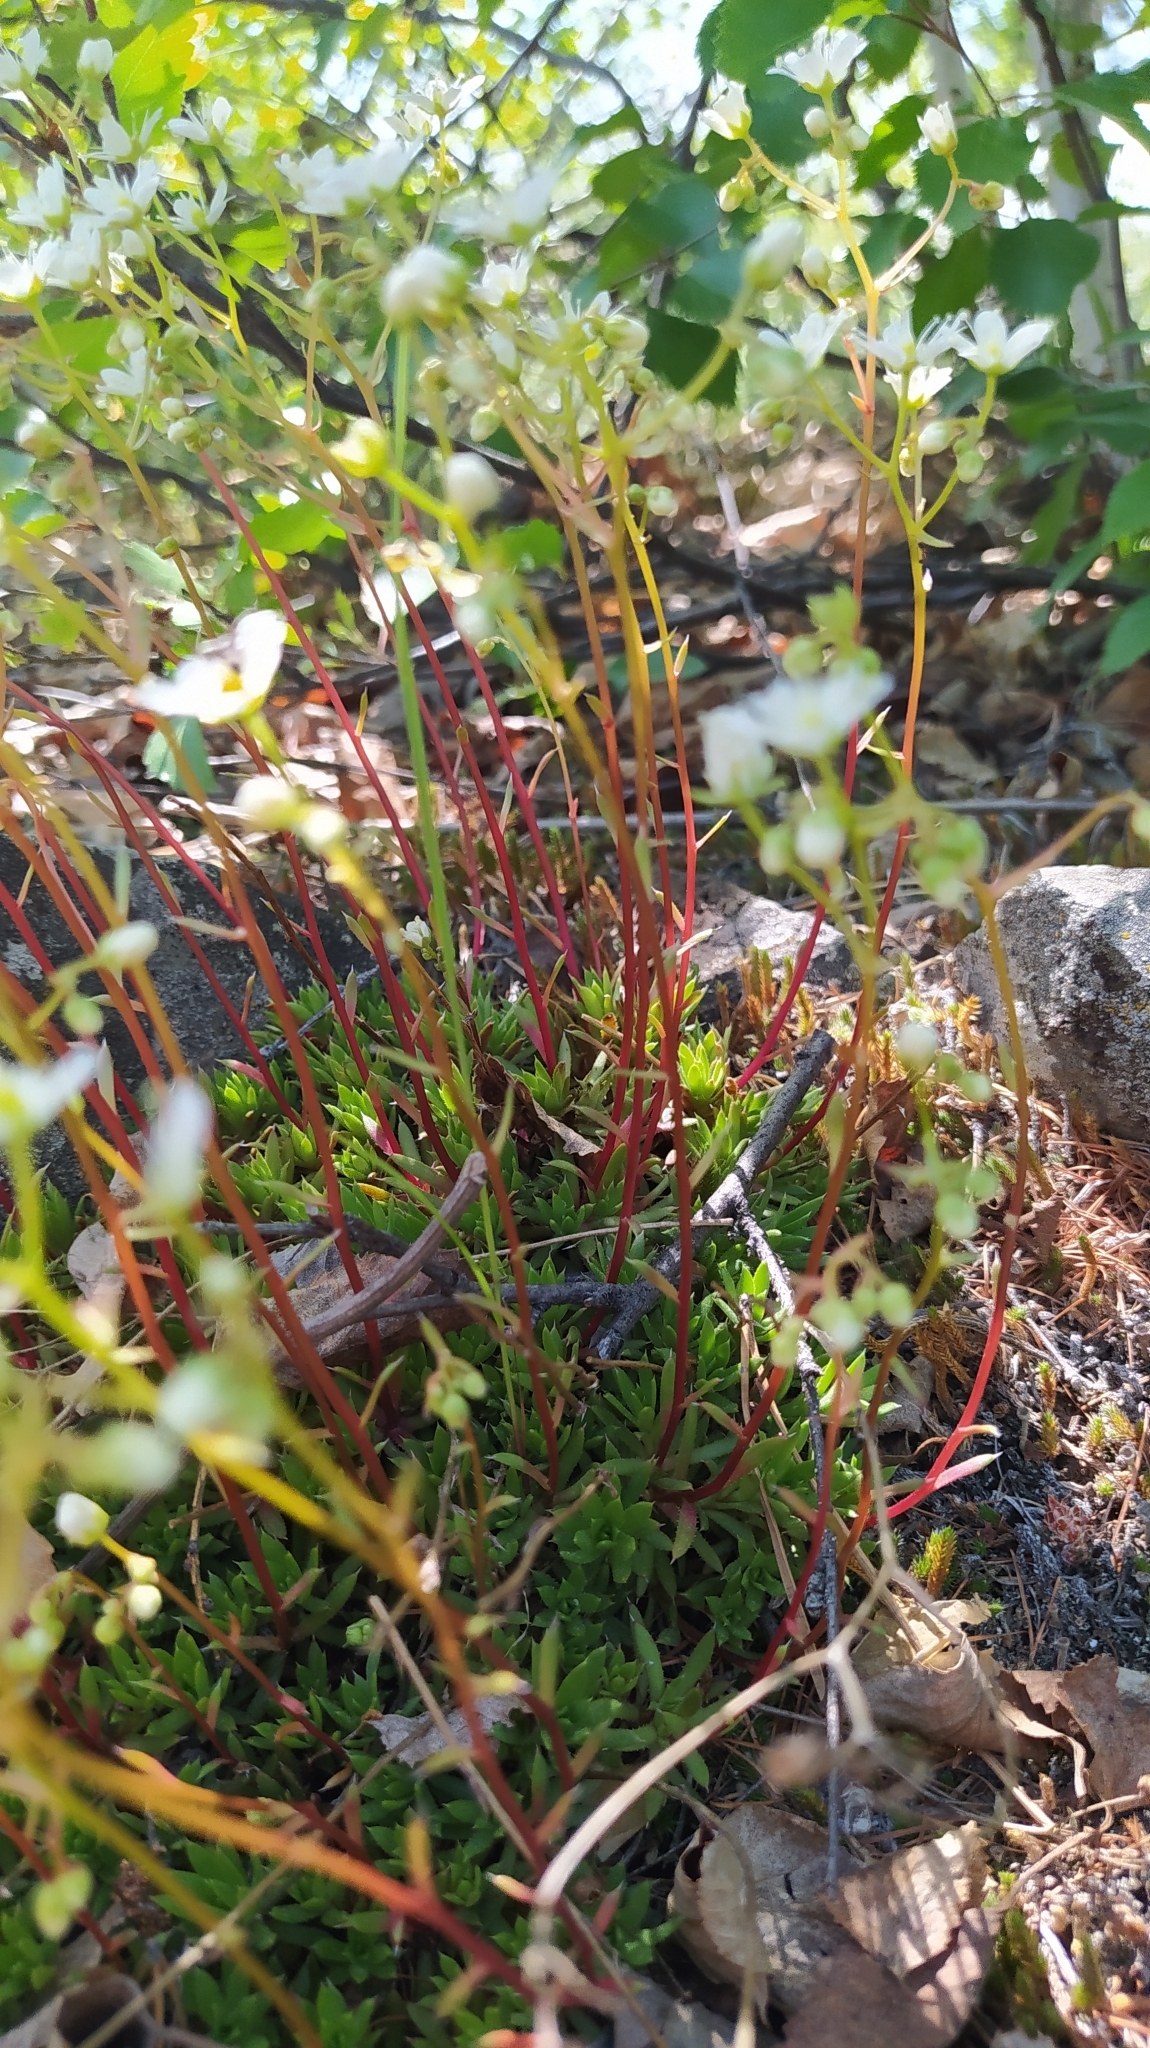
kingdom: Plantae
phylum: Tracheophyta
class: Magnoliopsida
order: Saxifragales
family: Saxifragaceae
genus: Saxifraga
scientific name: Saxifraga
